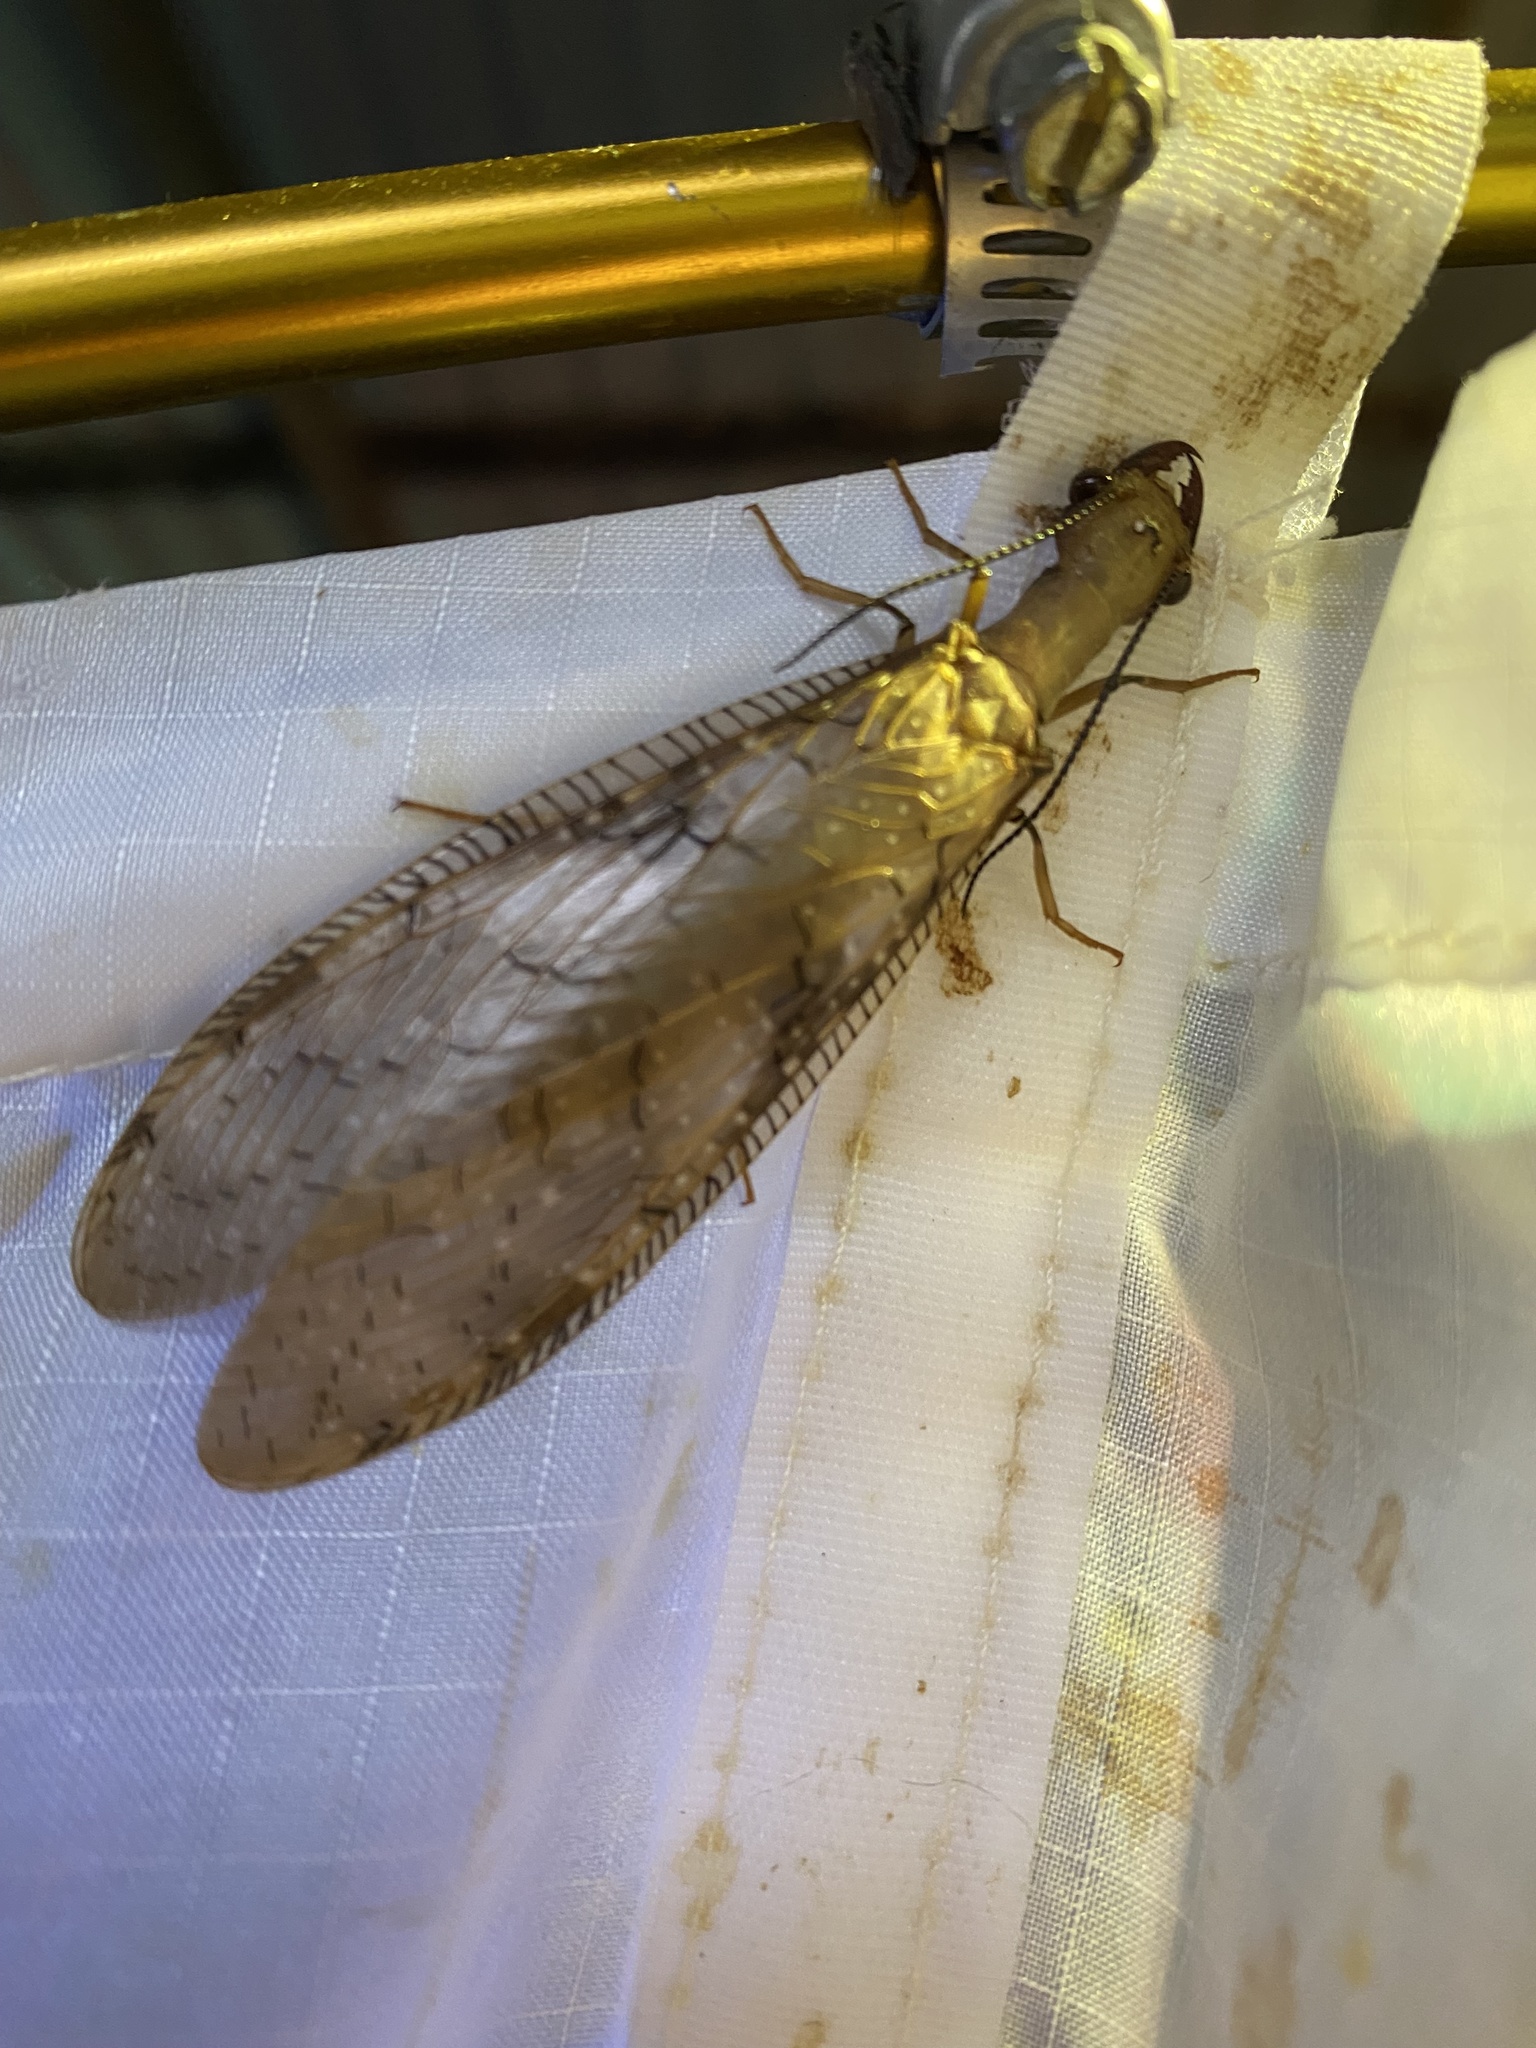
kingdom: Animalia
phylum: Arthropoda
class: Insecta
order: Megaloptera
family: Corydalidae
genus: Corydalus
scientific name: Corydalus flavicornis
